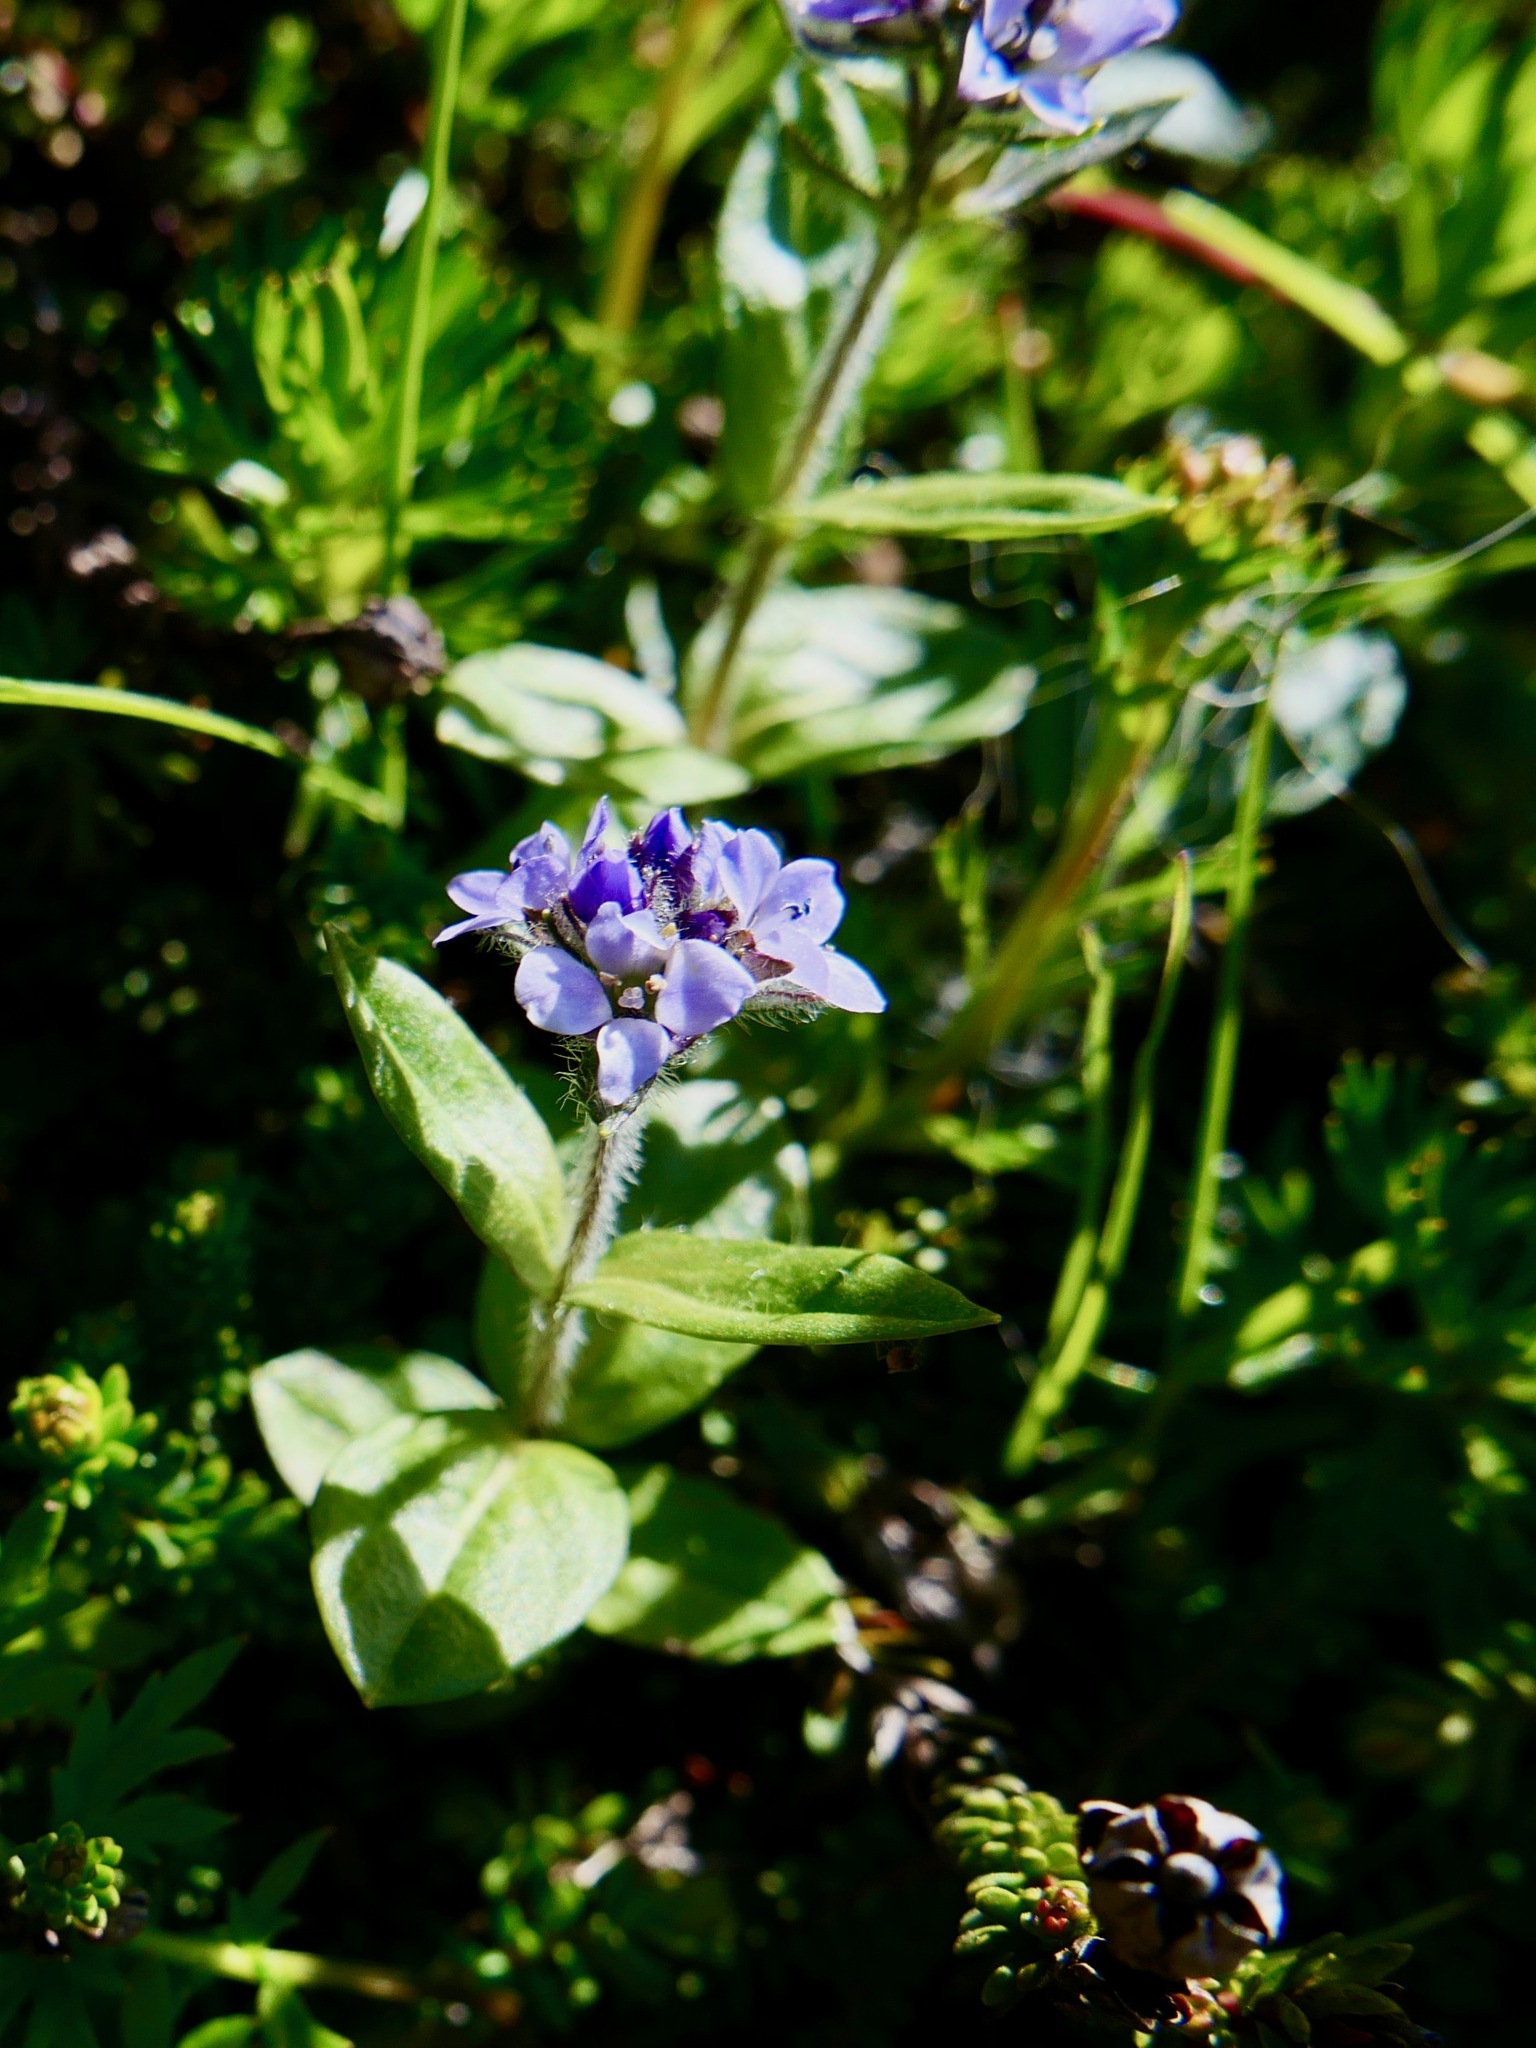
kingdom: Plantae
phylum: Tracheophyta
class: Magnoliopsida
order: Lamiales
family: Plantaginaceae
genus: Veronica
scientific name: Veronica wormskjoldii
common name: American alpine speedwell
